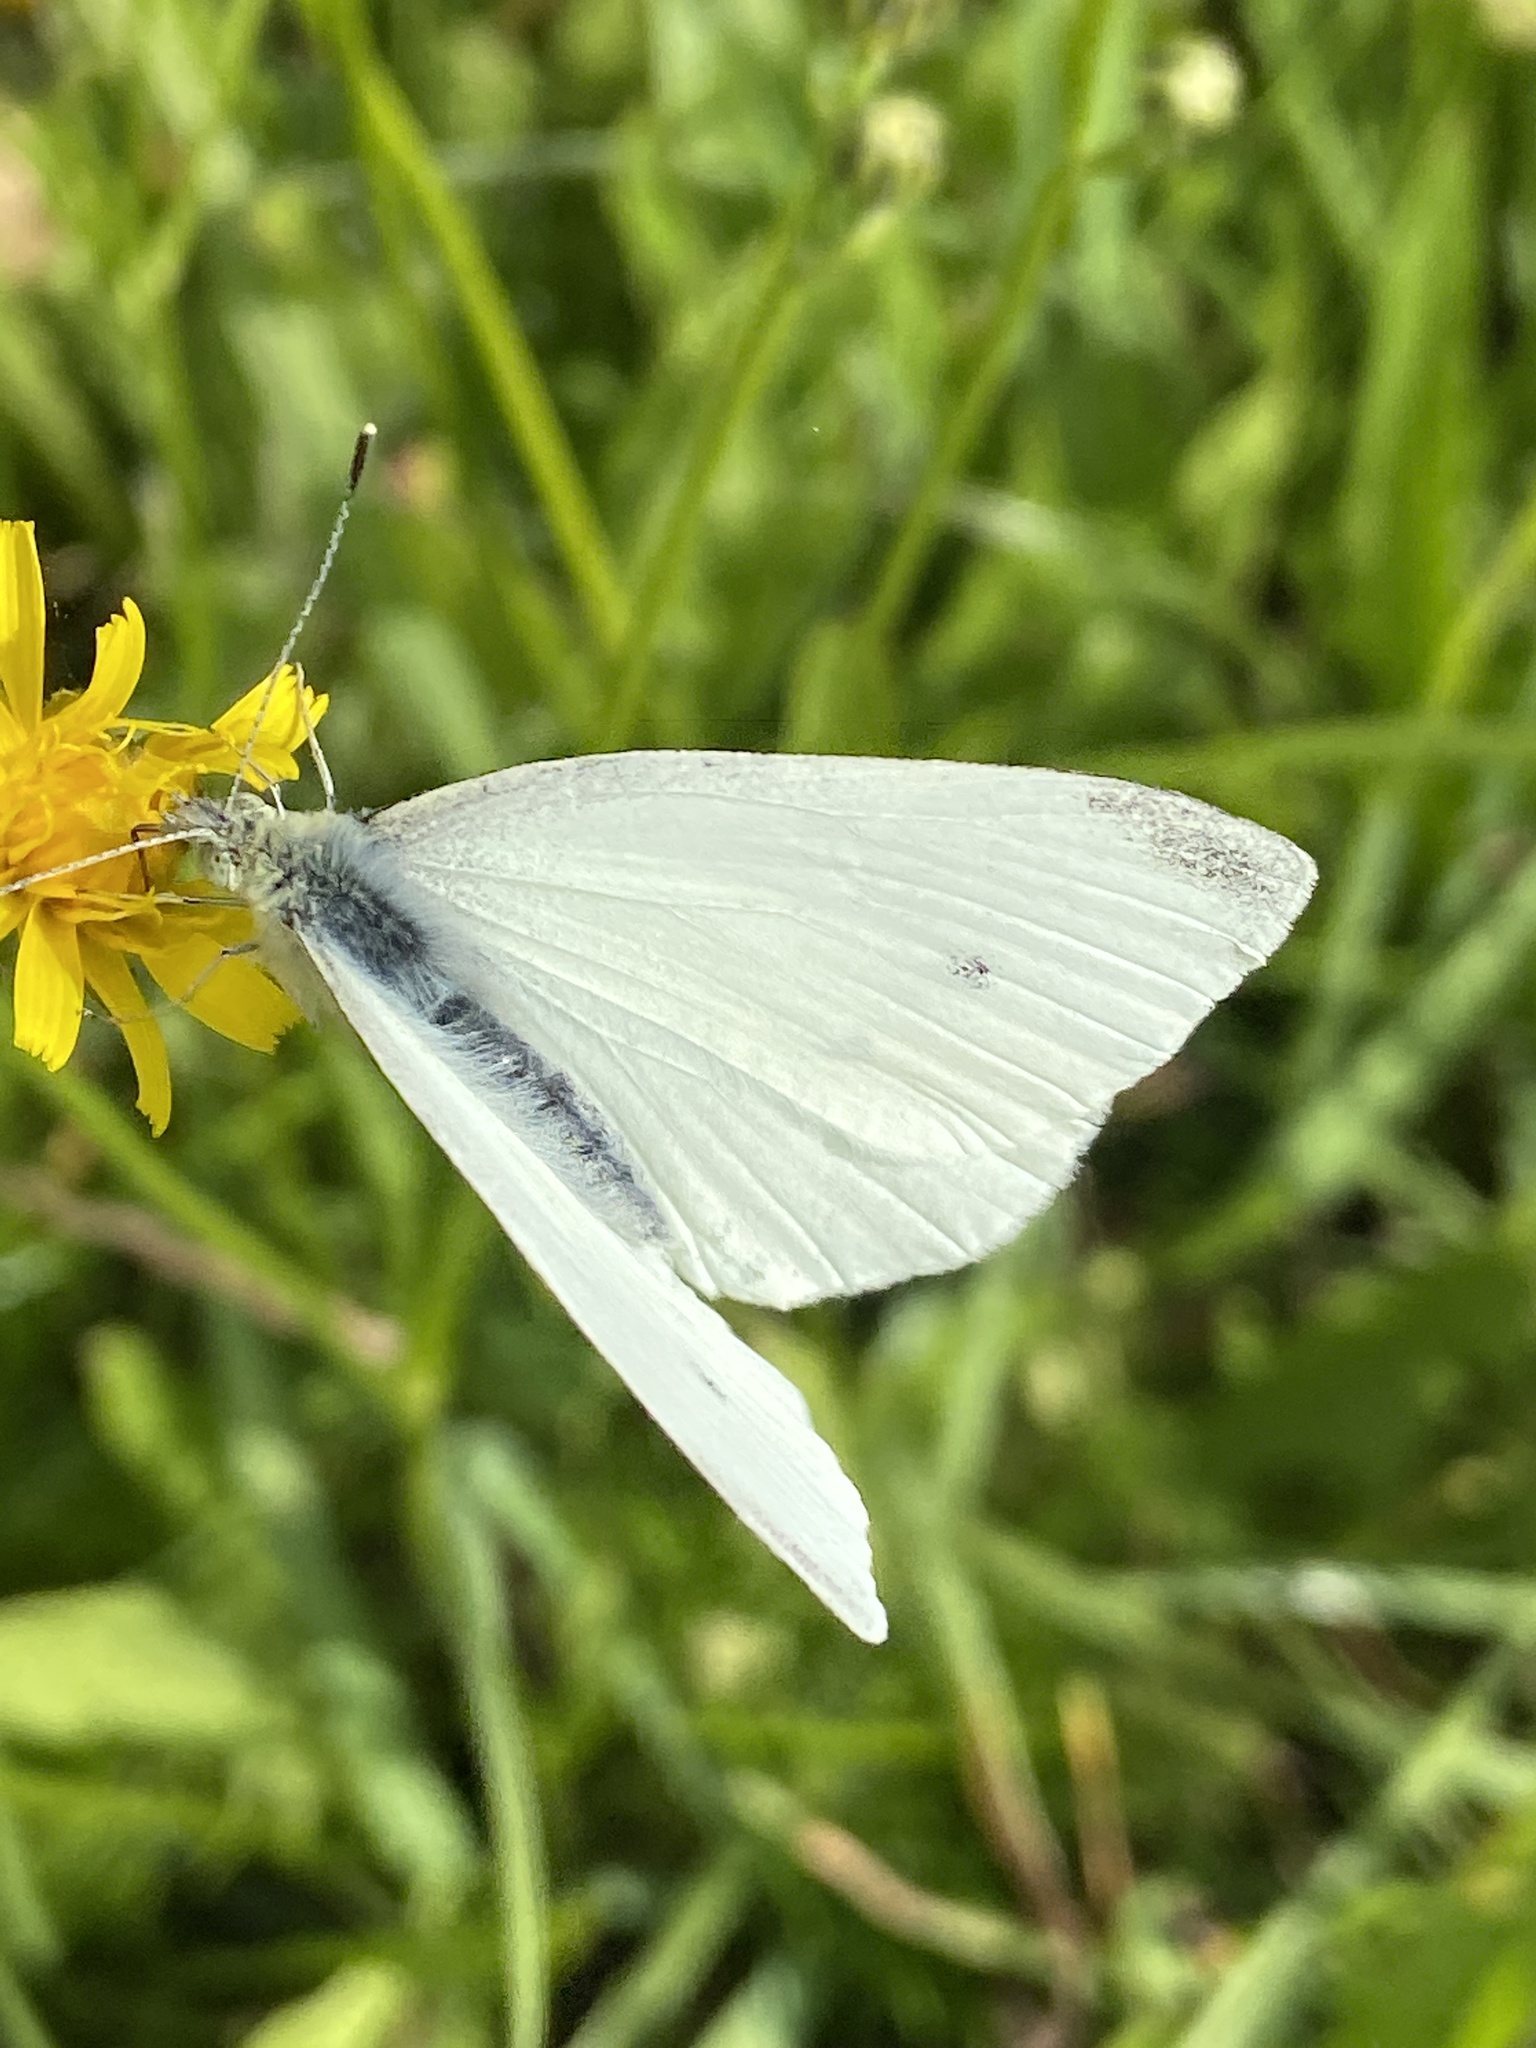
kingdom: Animalia
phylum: Arthropoda
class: Insecta
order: Lepidoptera
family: Pieridae
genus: Pieris
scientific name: Pieris rapae
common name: Small white
